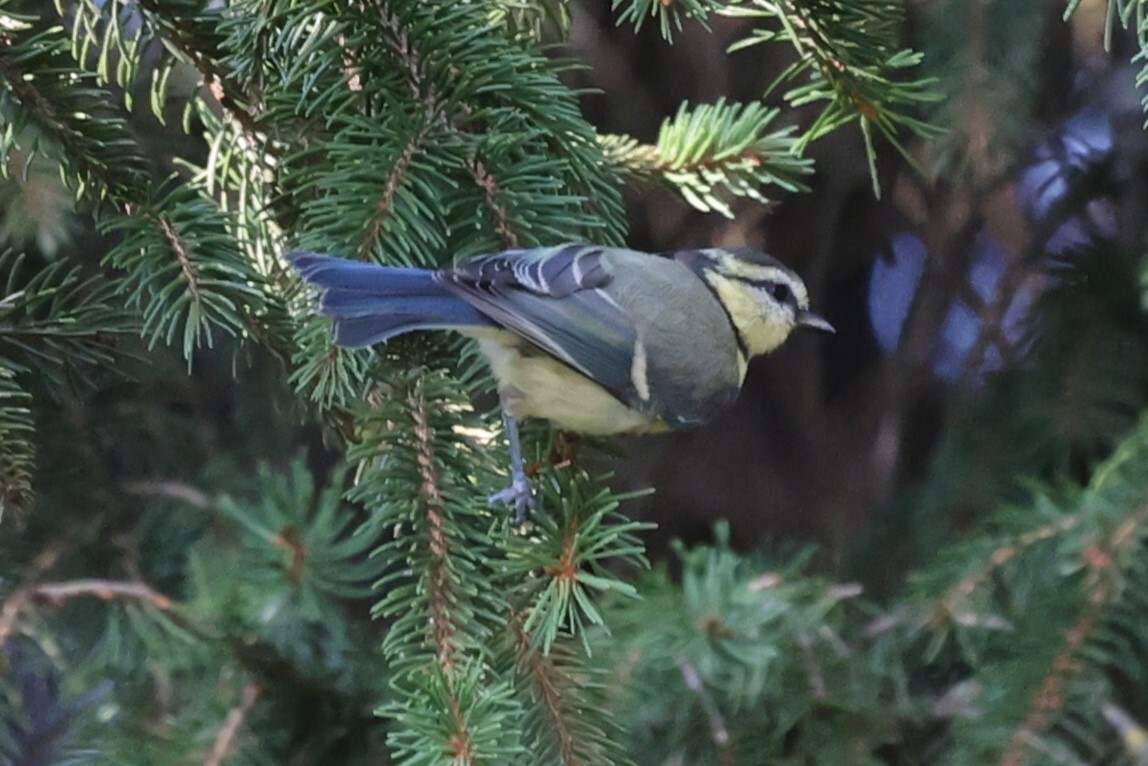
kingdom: Animalia
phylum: Chordata
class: Aves
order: Passeriformes
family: Paridae
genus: Cyanistes
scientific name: Cyanistes caeruleus
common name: Eurasian blue tit
